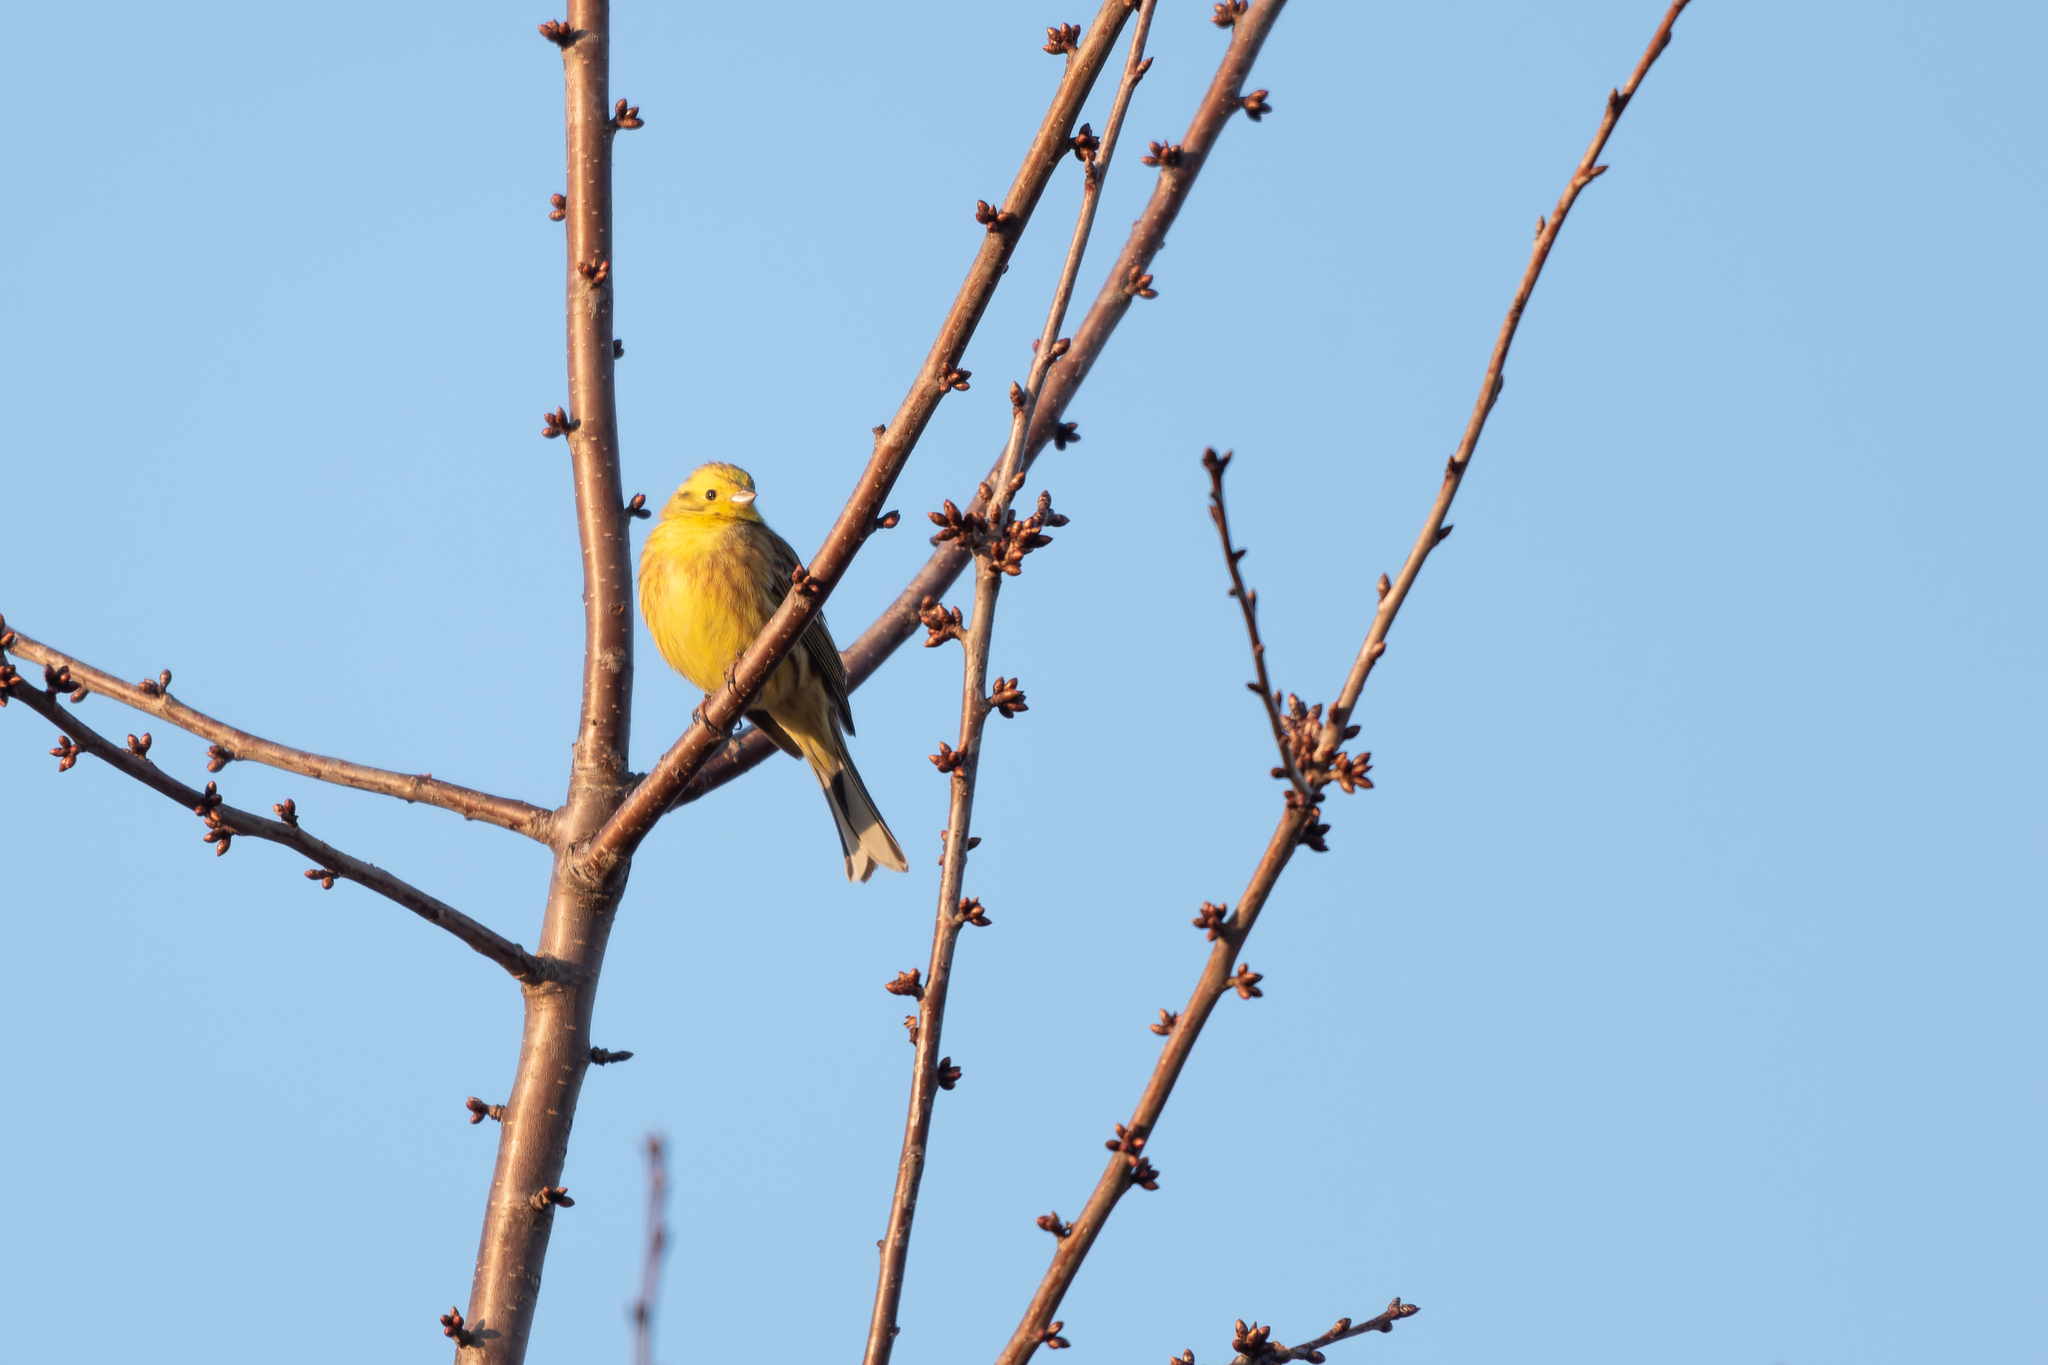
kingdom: Animalia
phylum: Chordata
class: Aves
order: Passeriformes
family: Emberizidae
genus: Emberiza
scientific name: Emberiza citrinella
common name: Yellowhammer
